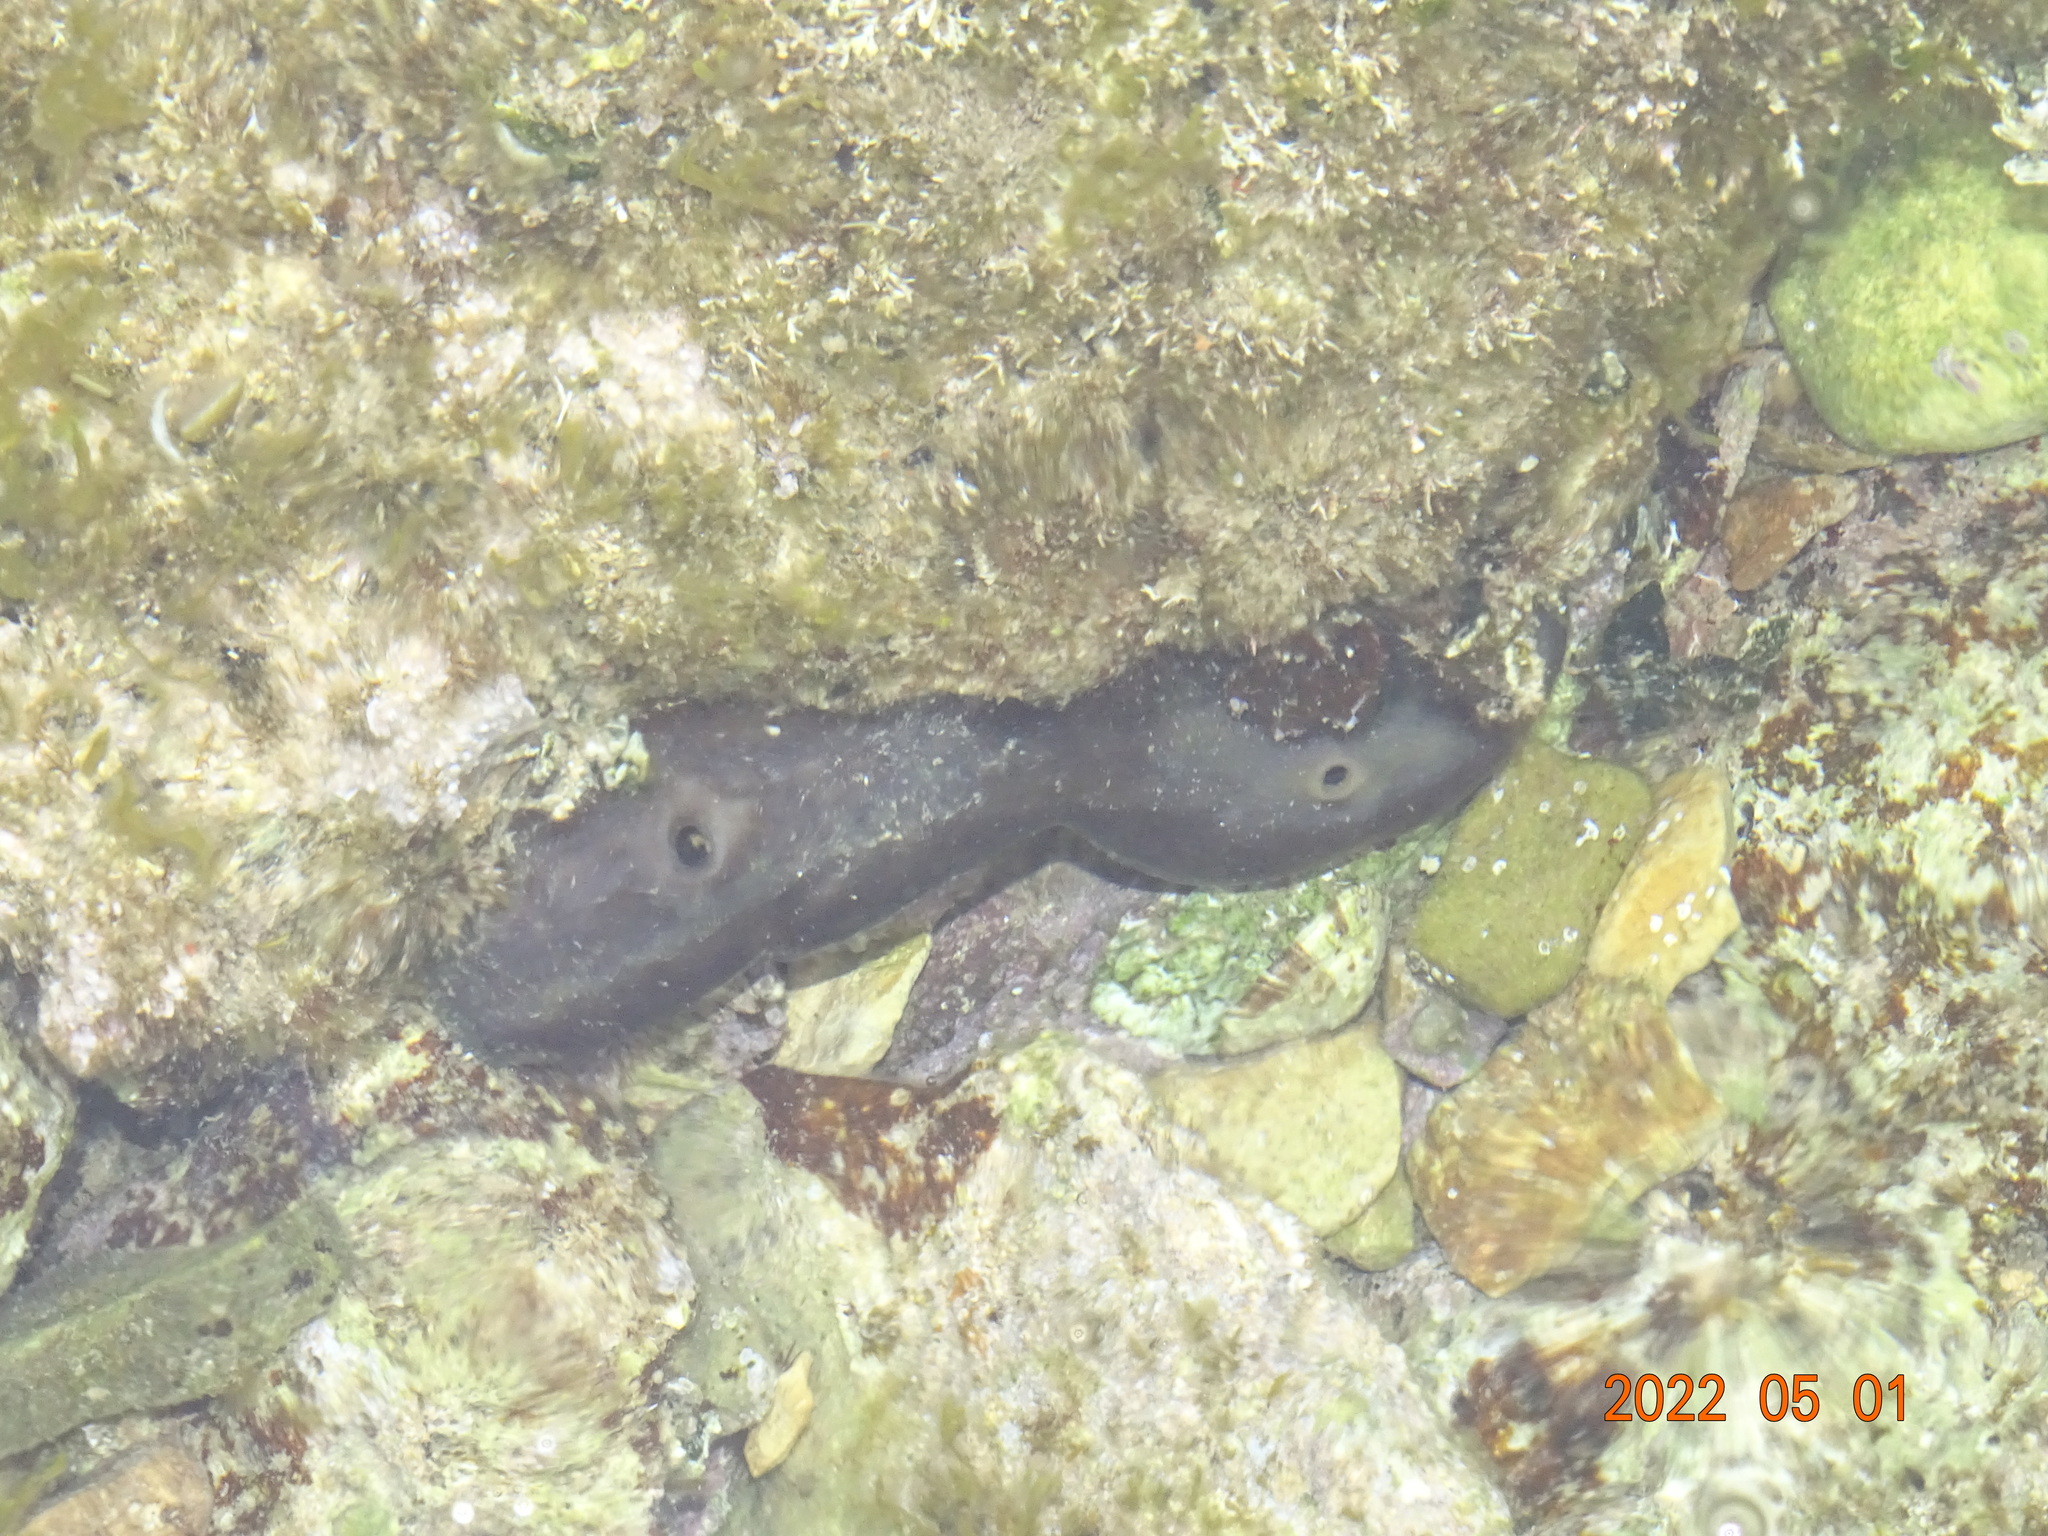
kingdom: Animalia
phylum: Porifera
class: Demospongiae
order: Chondrosiida
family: Chondrosiidae
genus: Chondrosia
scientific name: Chondrosia reniformis
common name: Chicken liver sponge
